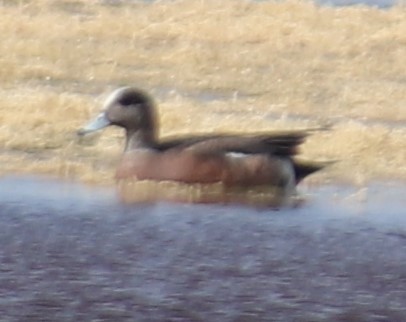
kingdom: Animalia
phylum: Chordata
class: Aves
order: Anseriformes
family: Anatidae
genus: Mareca
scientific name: Mareca americana
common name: American wigeon
